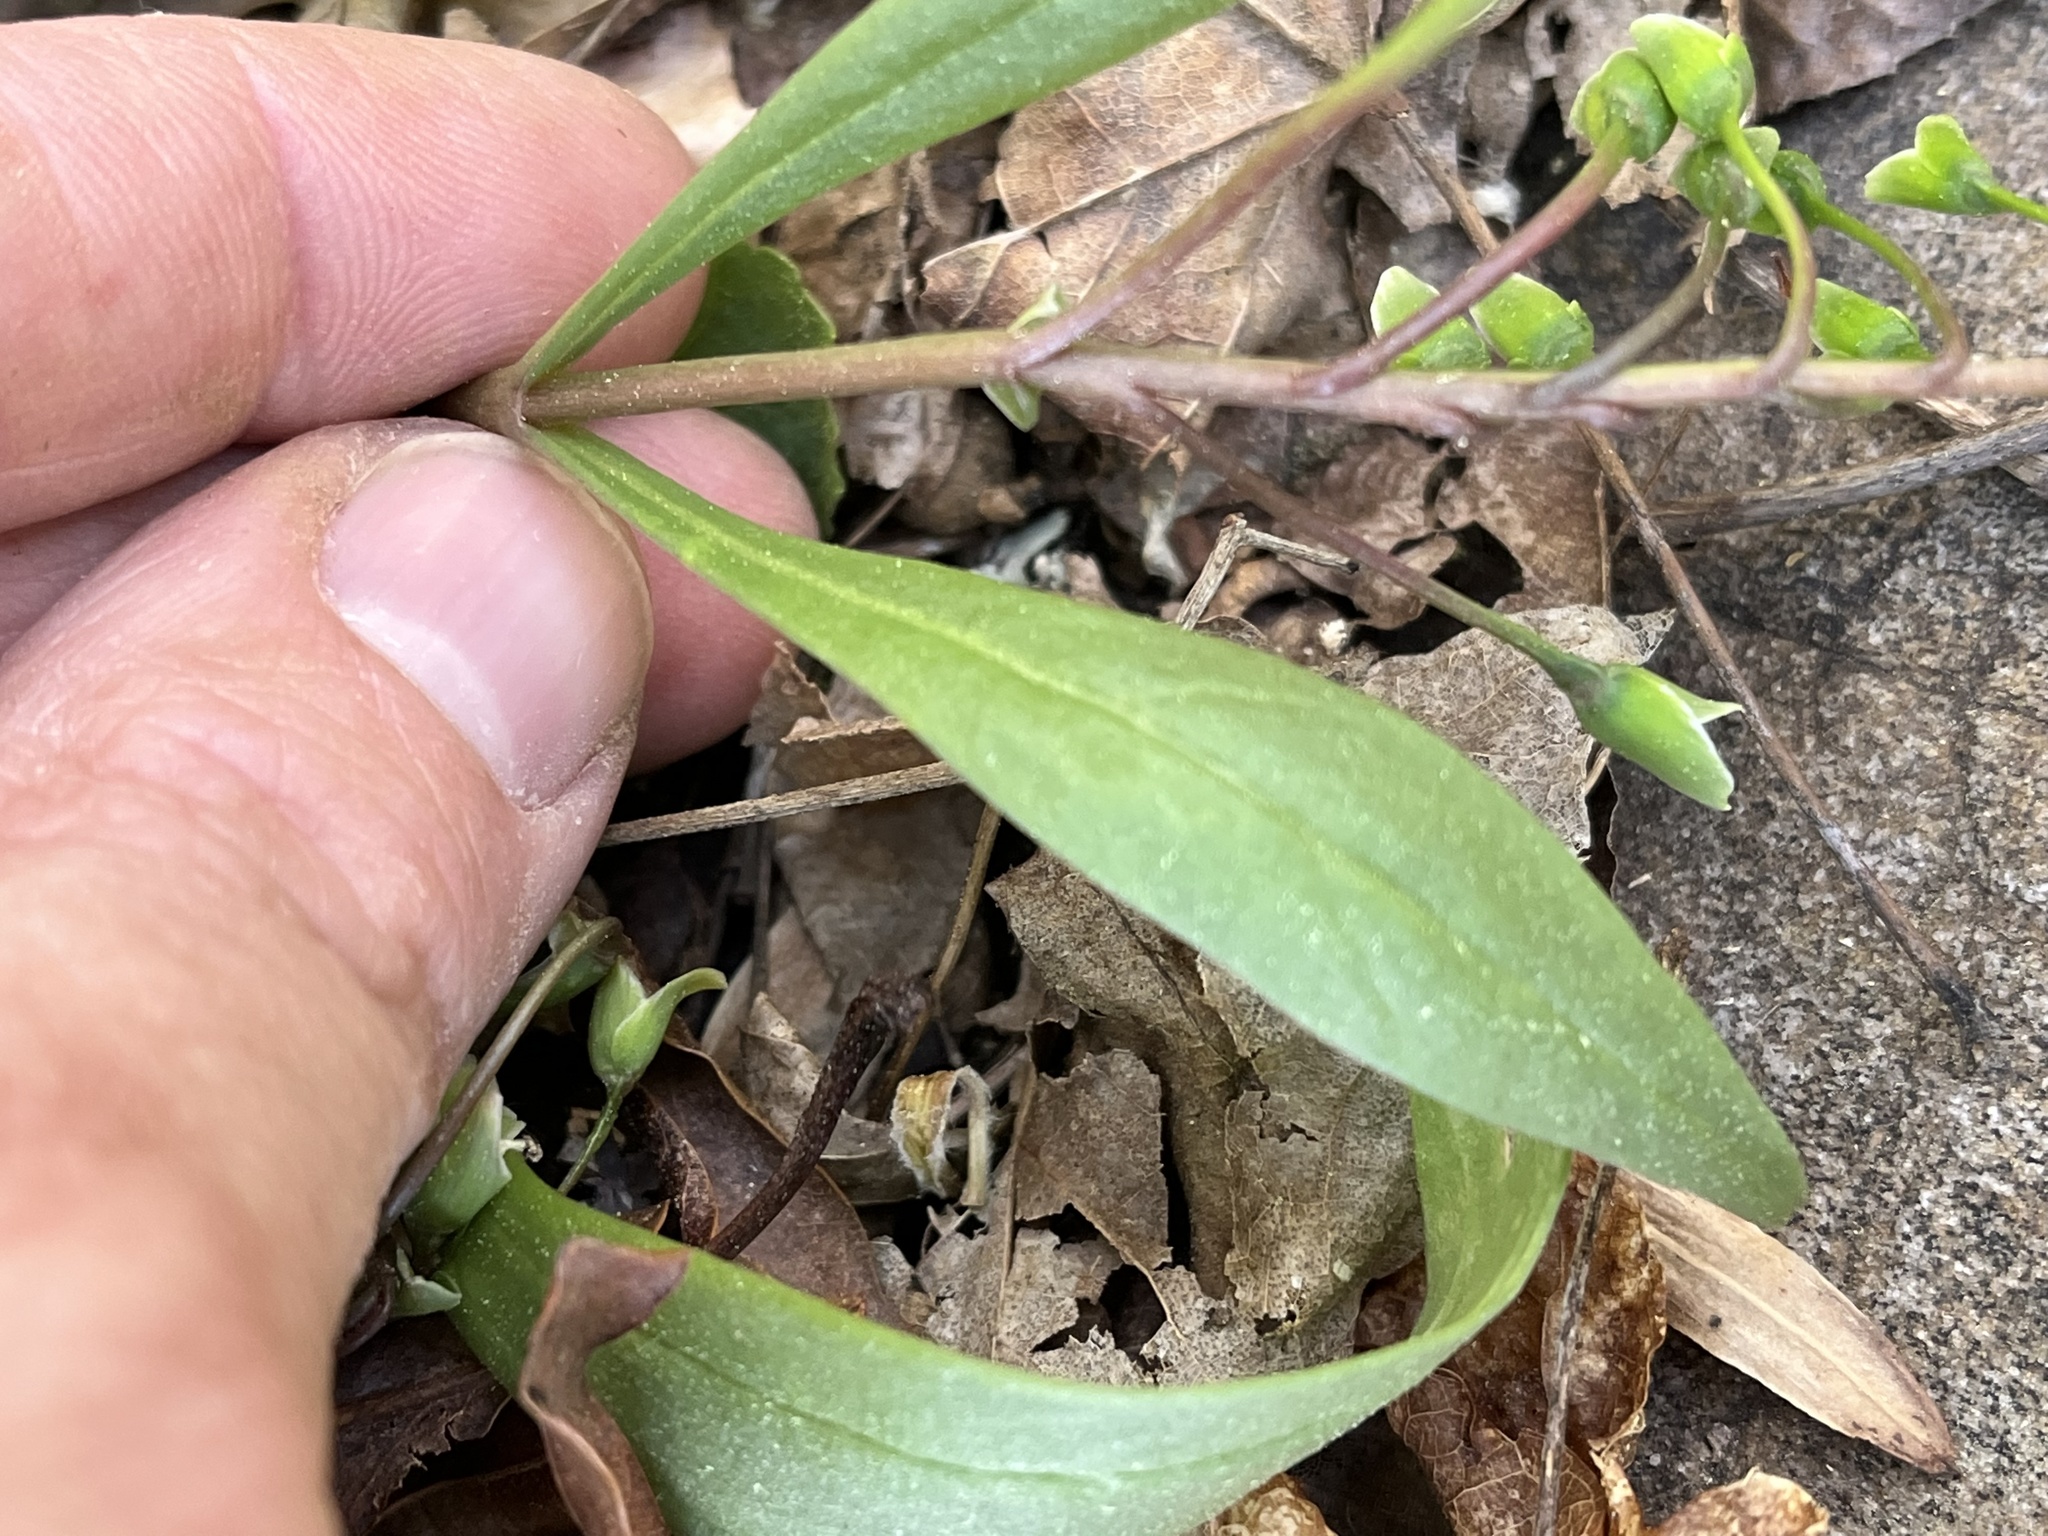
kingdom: Plantae
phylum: Tracheophyta
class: Magnoliopsida
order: Caryophyllales
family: Montiaceae
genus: Claytonia
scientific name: Claytonia caroliniana
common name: Carolina spring beauty
